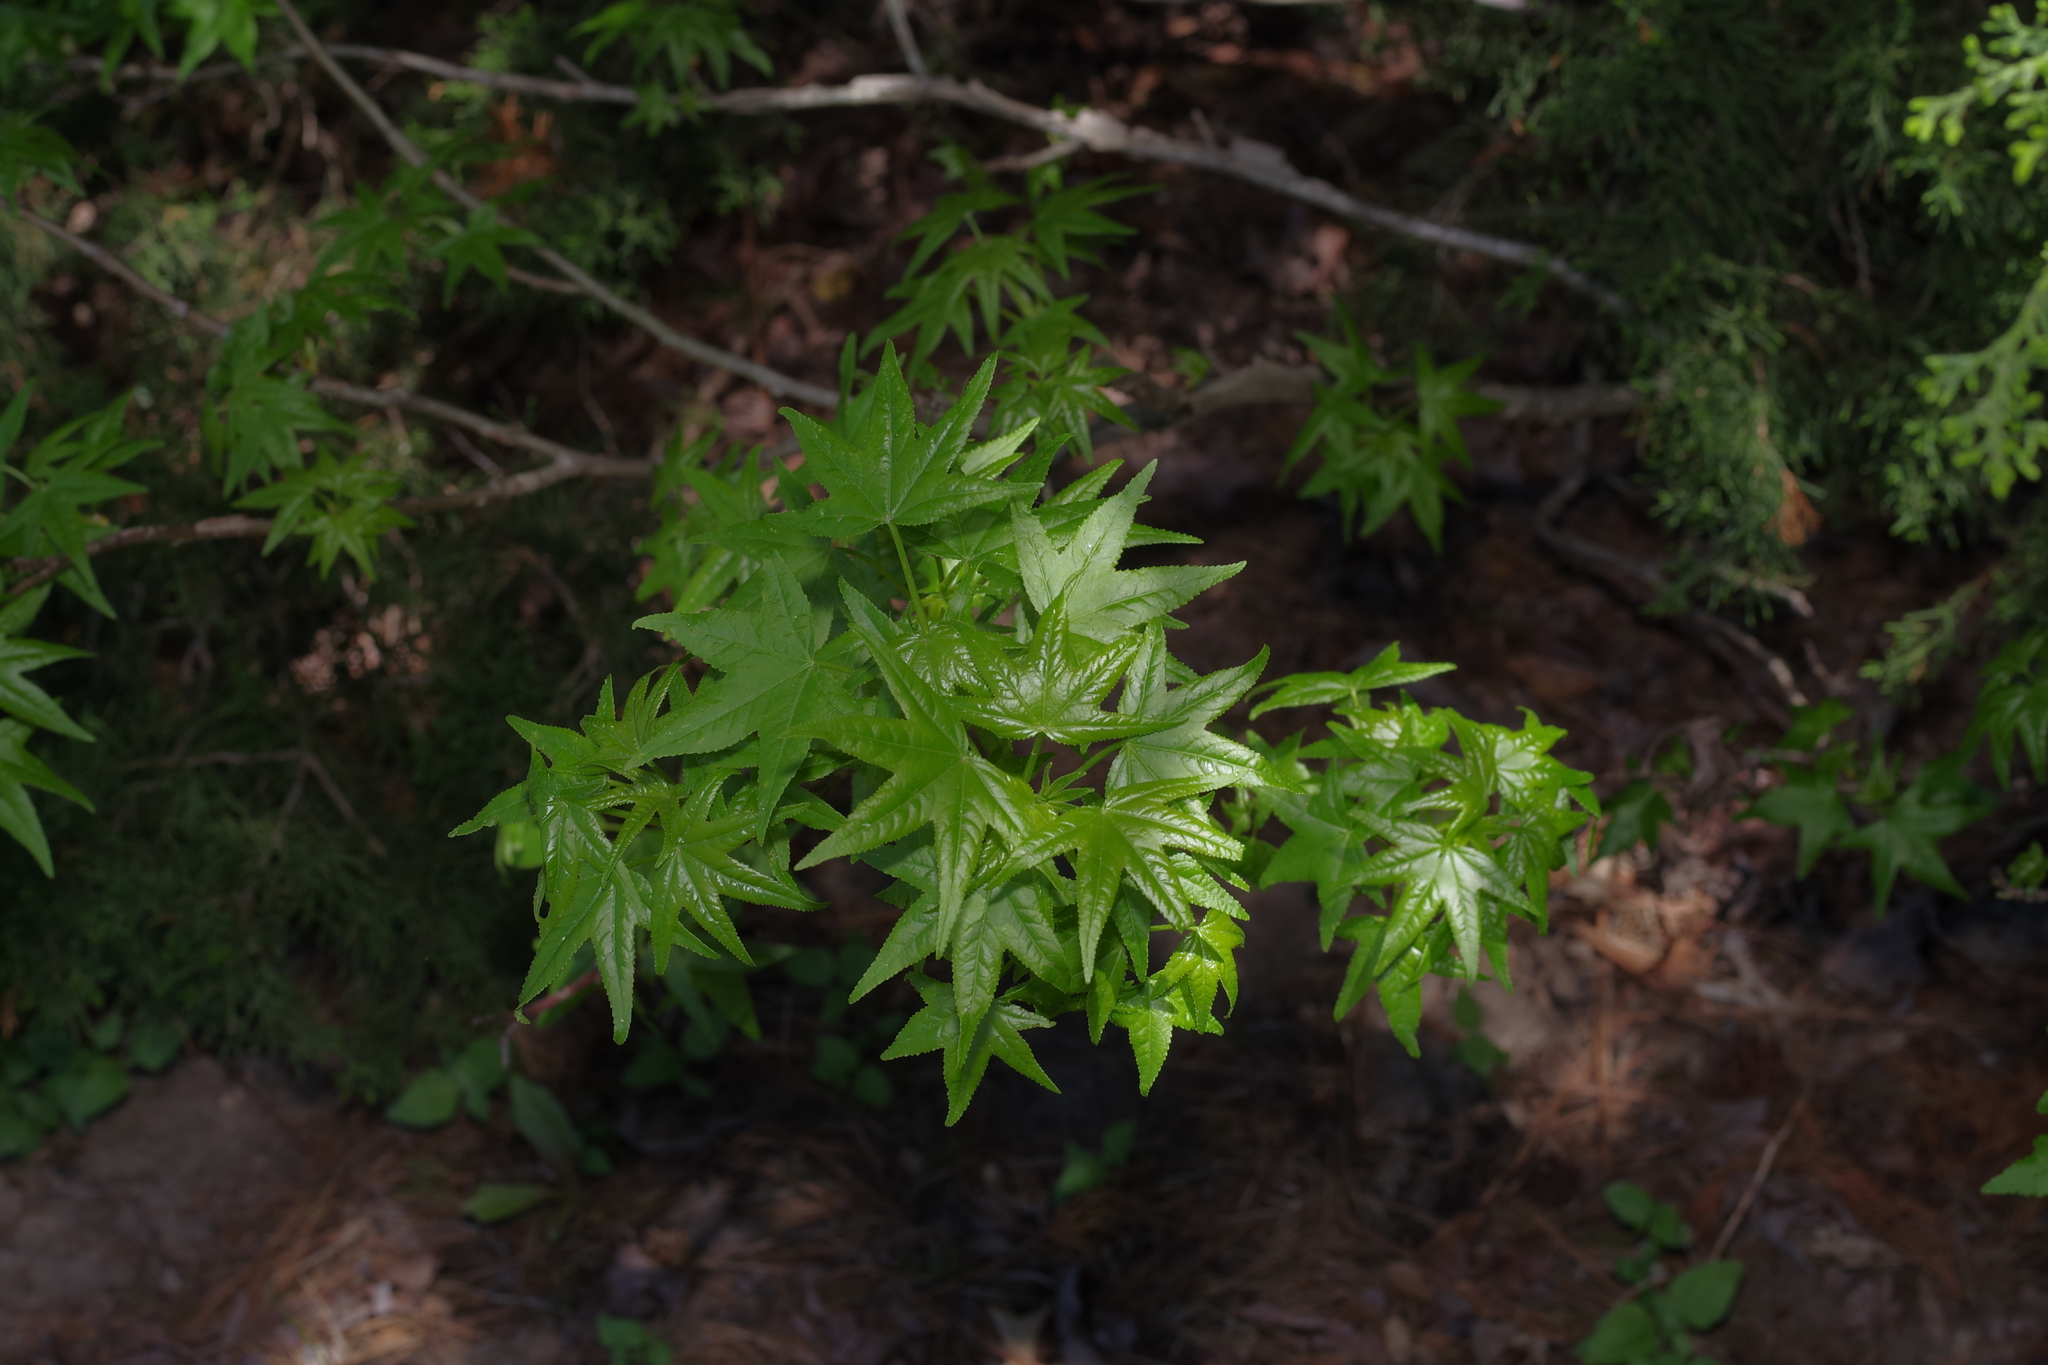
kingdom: Plantae
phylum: Tracheophyta
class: Magnoliopsida
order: Saxifragales
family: Altingiaceae
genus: Liquidambar
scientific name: Liquidambar styraciflua
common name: Sweet gum
